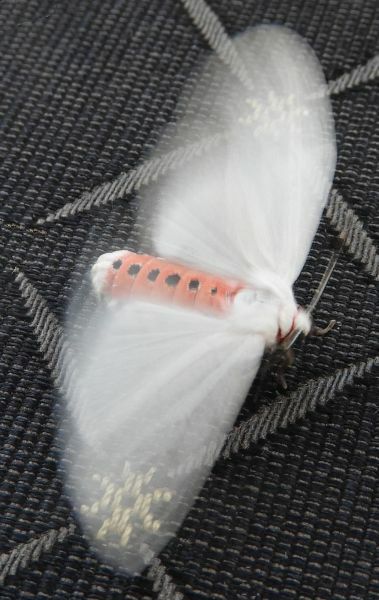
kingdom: Animalia
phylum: Arthropoda
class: Insecta
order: Lepidoptera
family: Erebidae
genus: Euchaetes
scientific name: Euchaetes elegans
